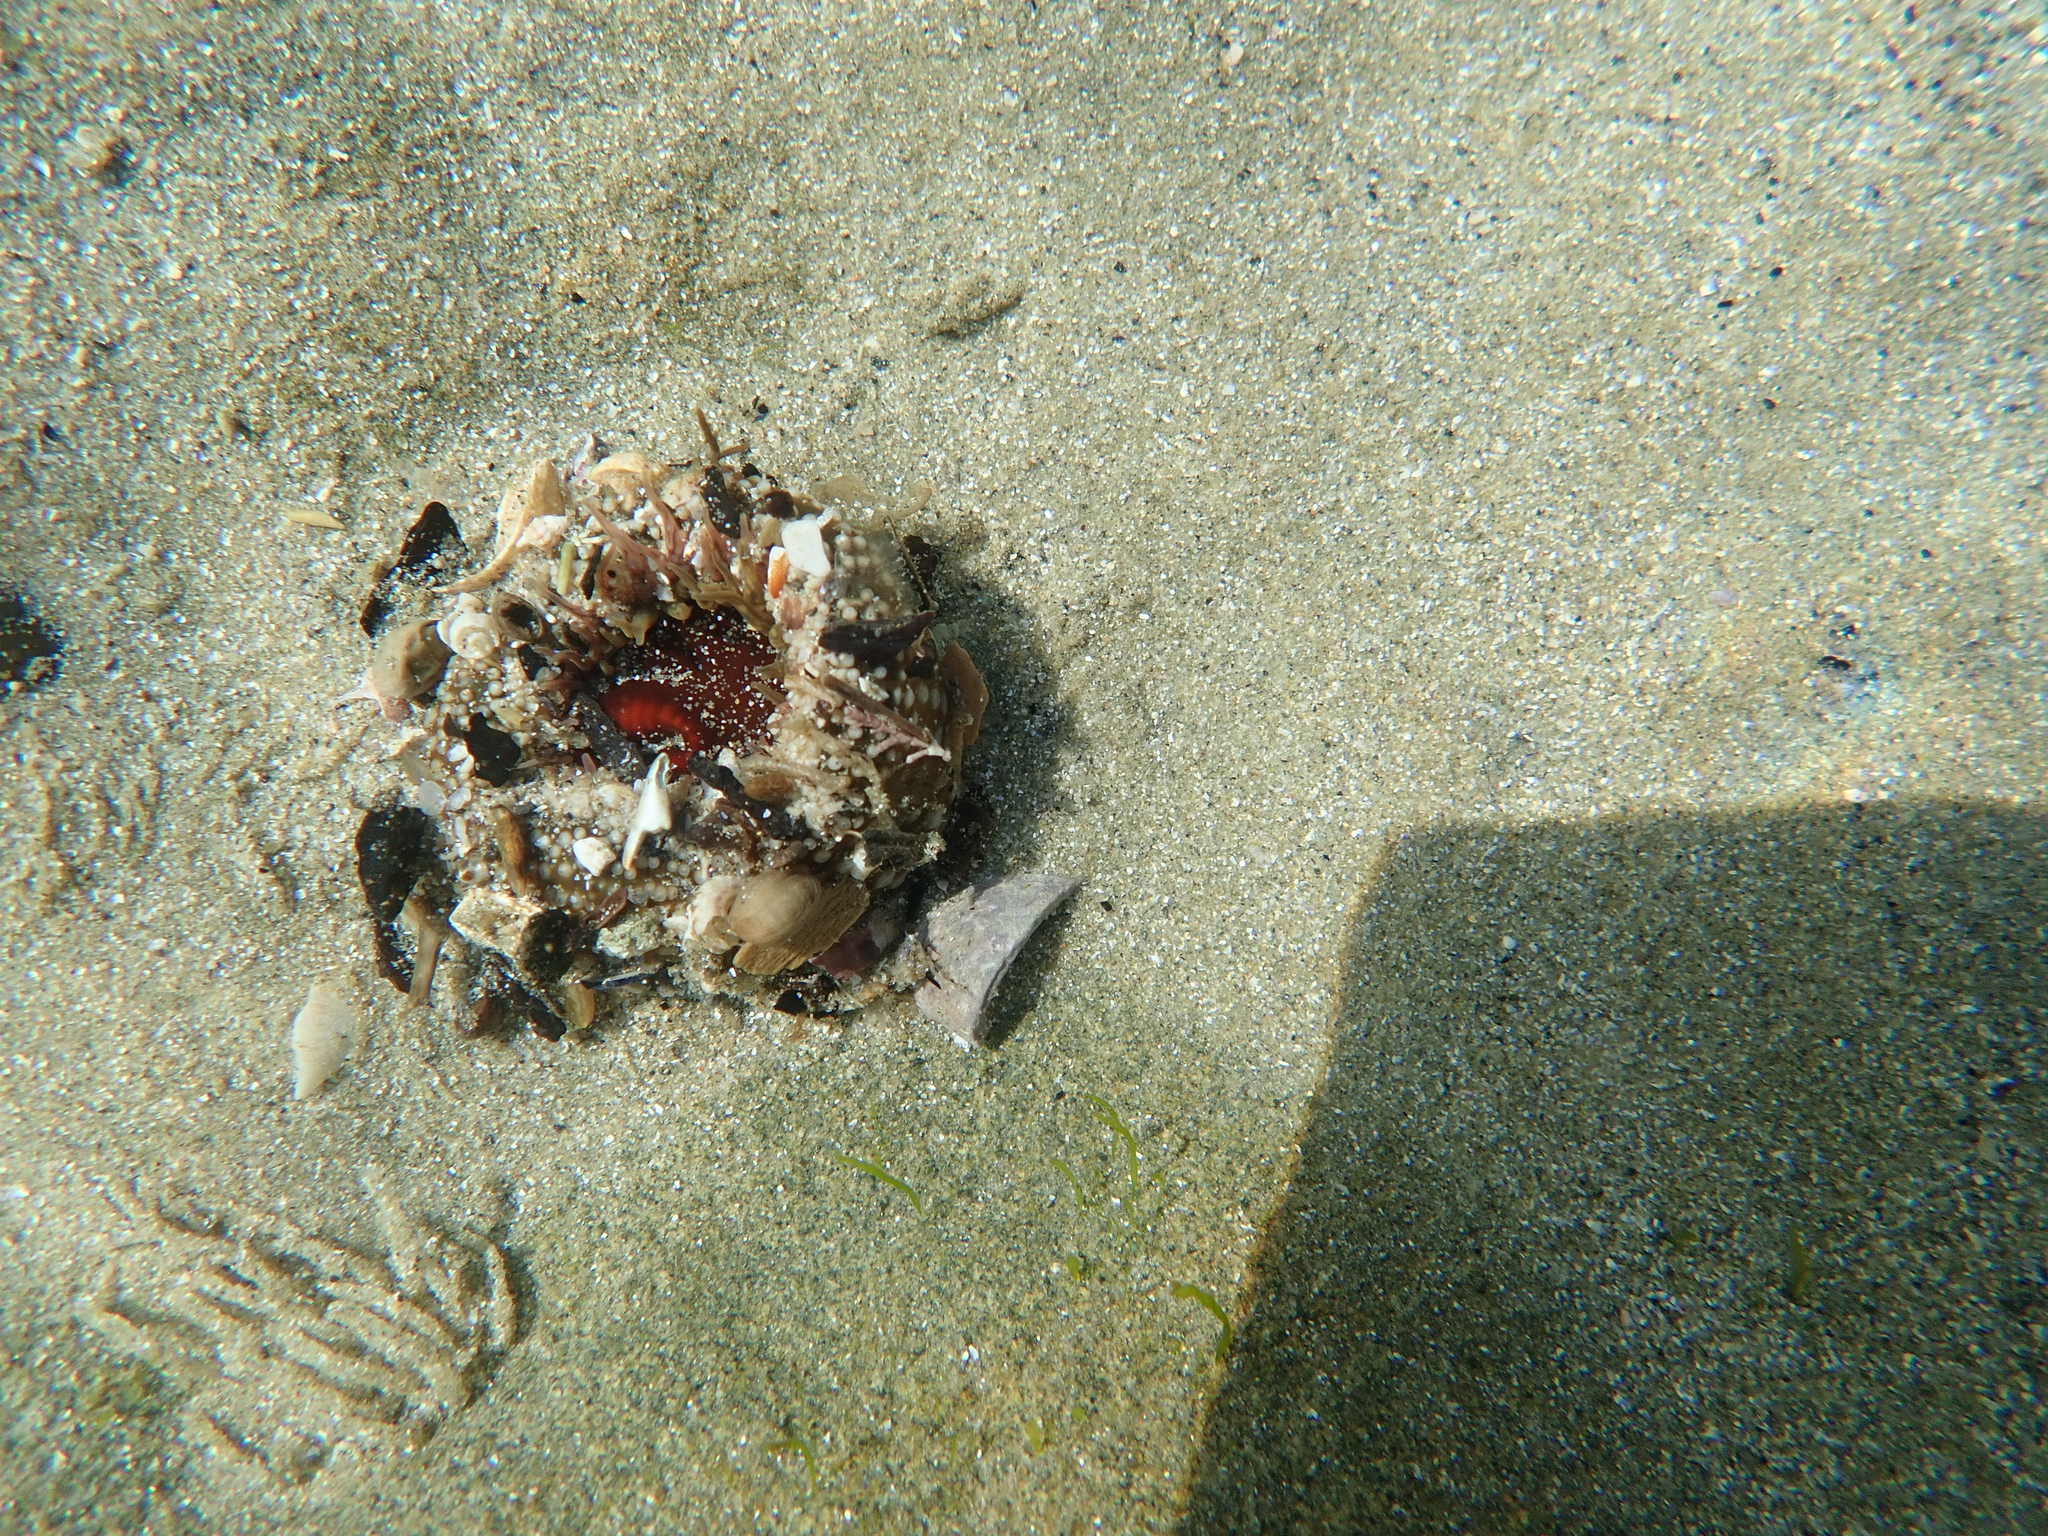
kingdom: Animalia
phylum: Cnidaria
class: Anthozoa
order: Actiniaria
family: Actiniidae
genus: Oulactis
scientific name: Oulactis muscosa
